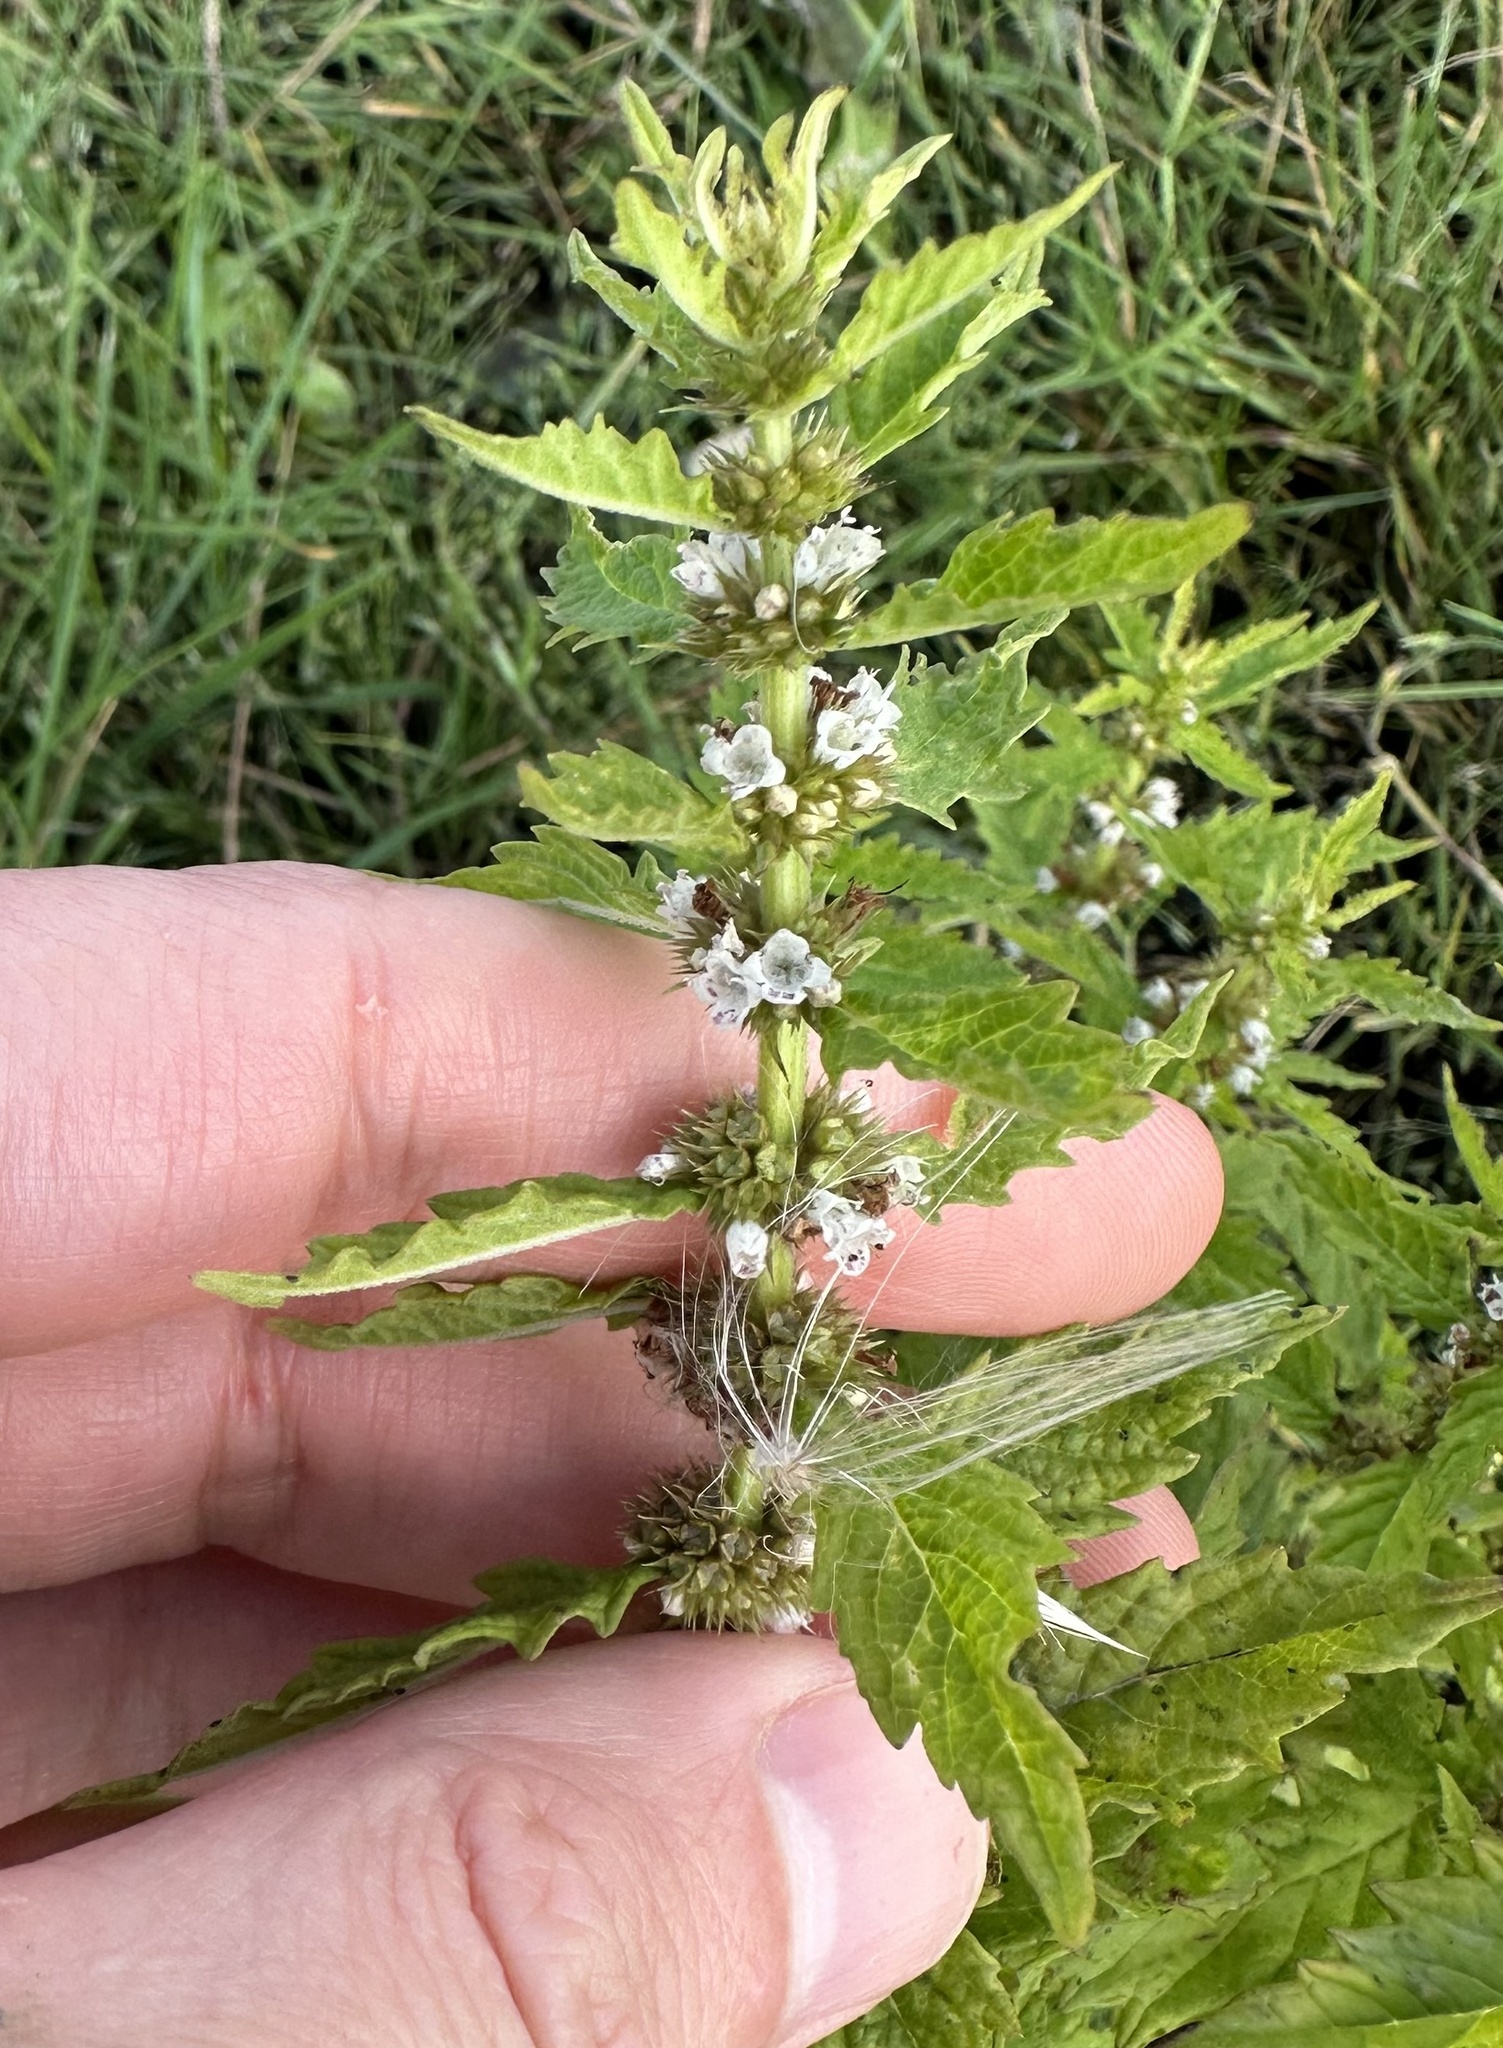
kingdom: Plantae
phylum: Tracheophyta
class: Magnoliopsida
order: Lamiales
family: Lamiaceae
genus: Lycopus
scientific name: Lycopus europaeus
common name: European bugleweed
